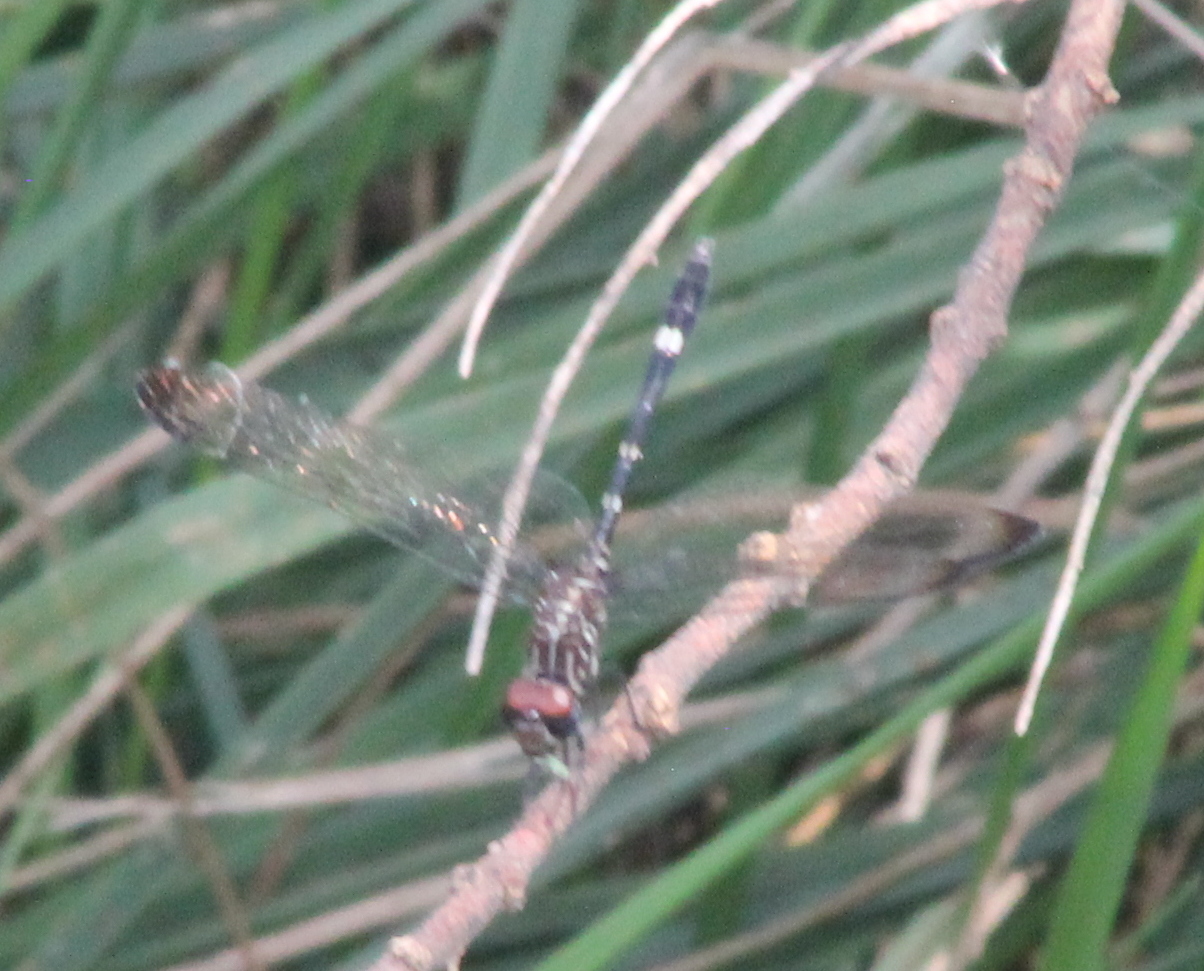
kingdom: Animalia
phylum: Arthropoda
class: Insecta
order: Odonata
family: Libellulidae
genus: Dythemis
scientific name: Dythemis velox
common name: Swift setwing
